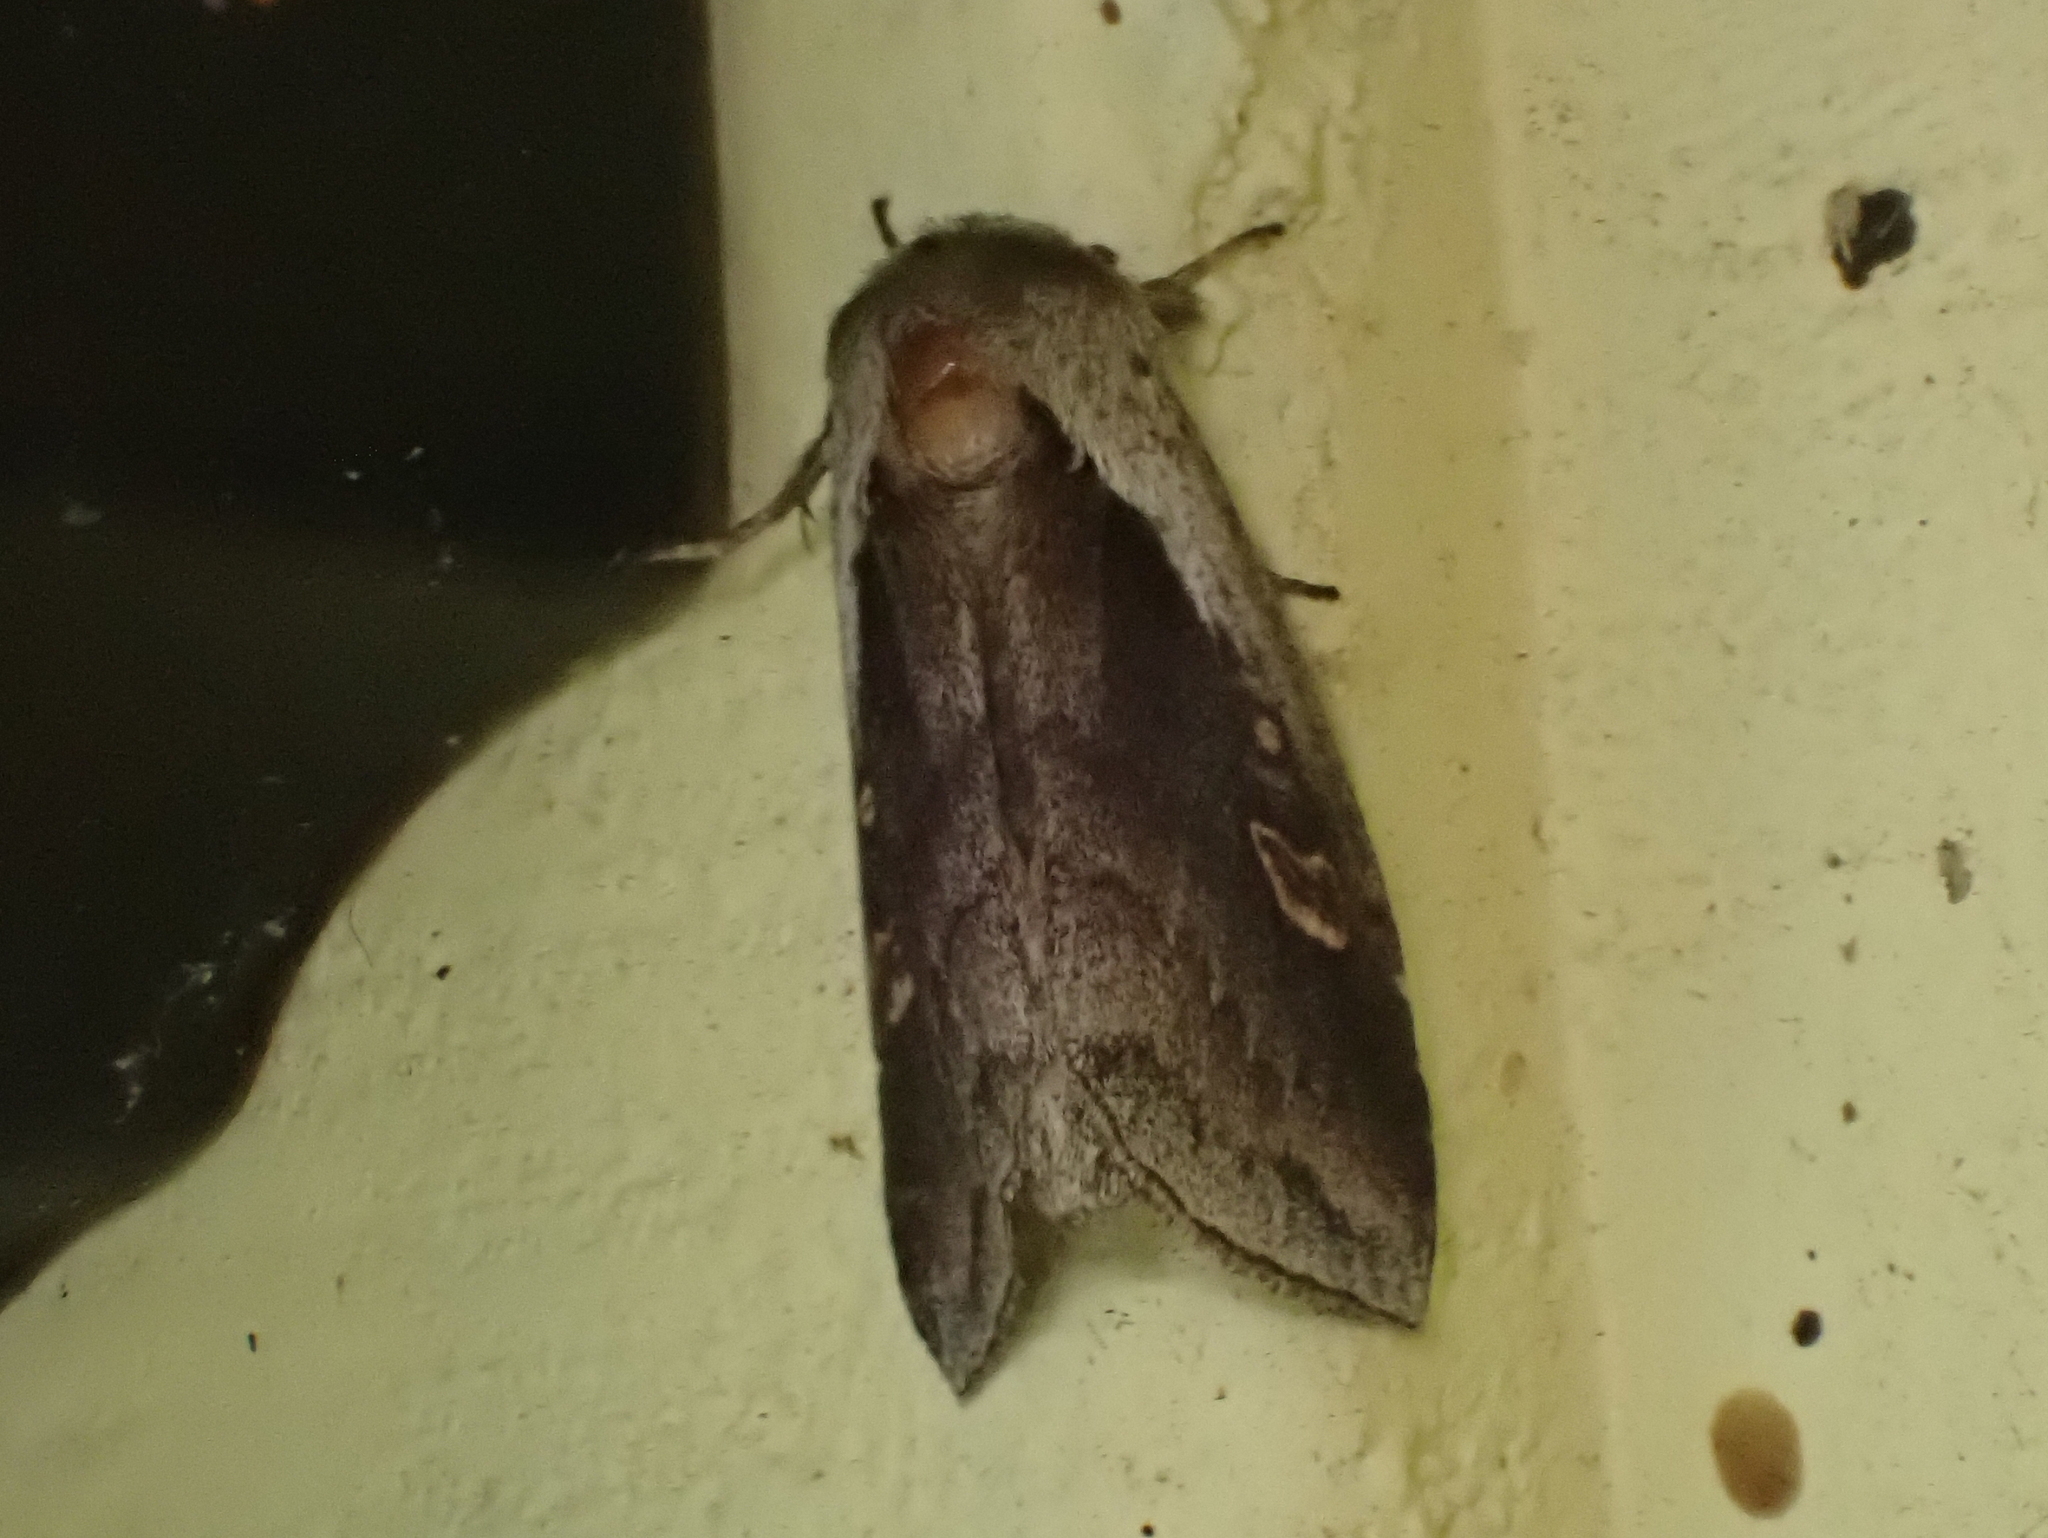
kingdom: Animalia
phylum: Arthropoda
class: Insecta
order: Lepidoptera
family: Noctuidae
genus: Bellura
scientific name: Bellura brehmei
